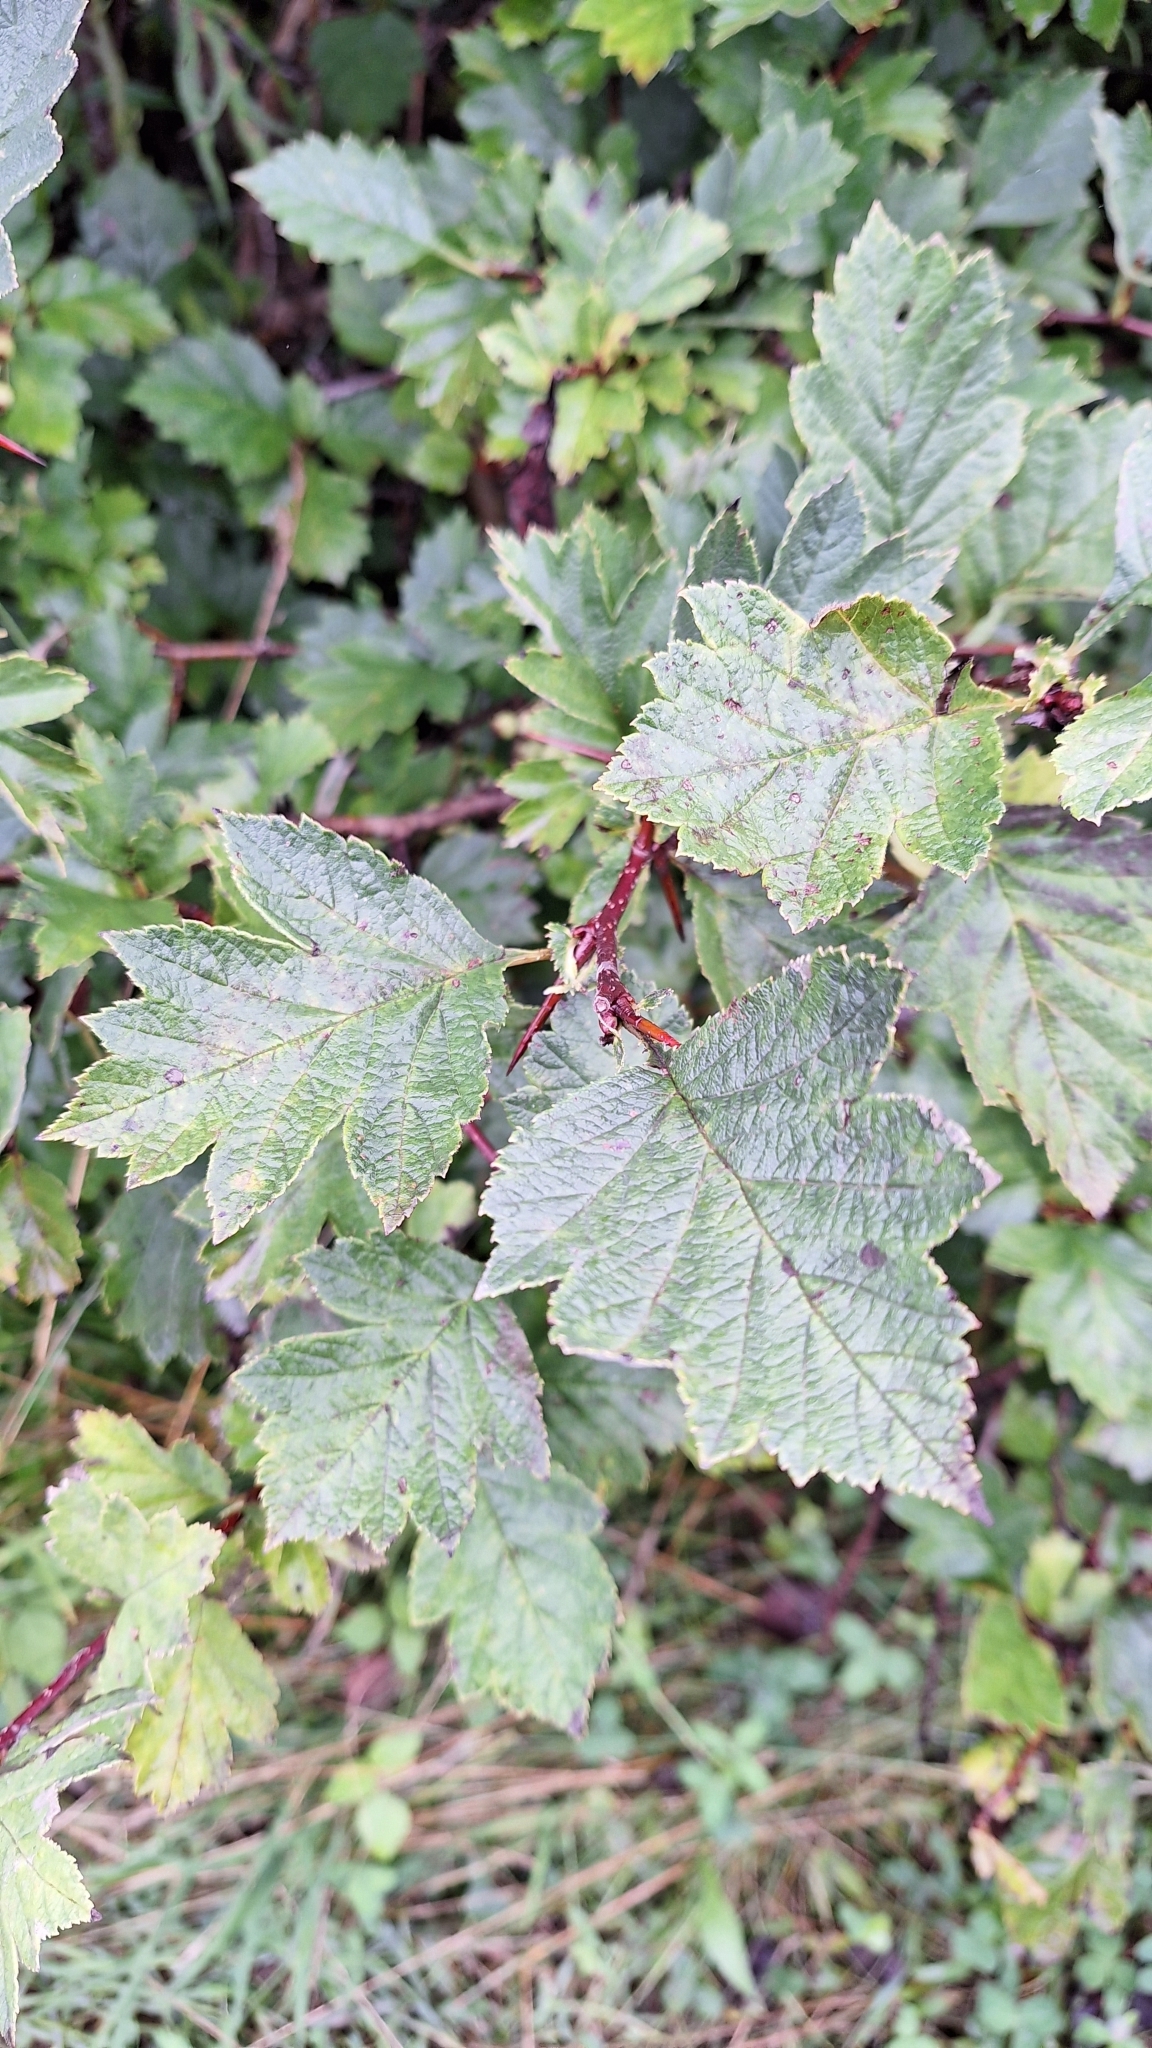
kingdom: Plantae
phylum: Tracheophyta
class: Magnoliopsida
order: Rosales
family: Rosaceae
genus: Crataegus
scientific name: Crataegus maximowiczii
